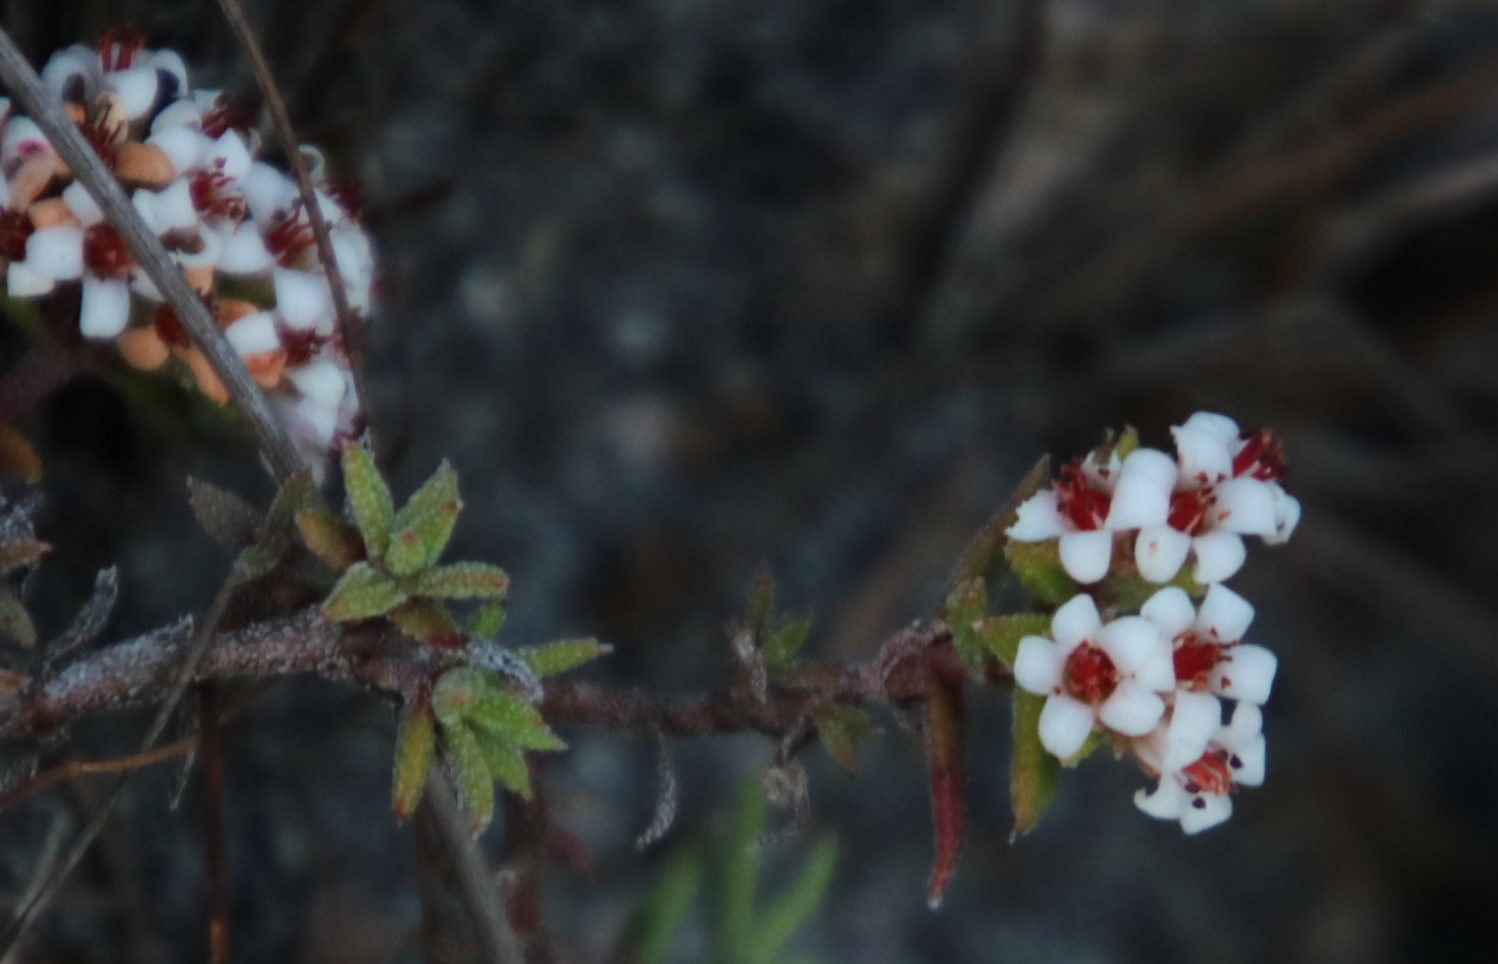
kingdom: Plantae
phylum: Tracheophyta
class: Magnoliopsida
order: Saxifragales
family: Crassulaceae
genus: Crassula
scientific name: Crassula pruinosa
